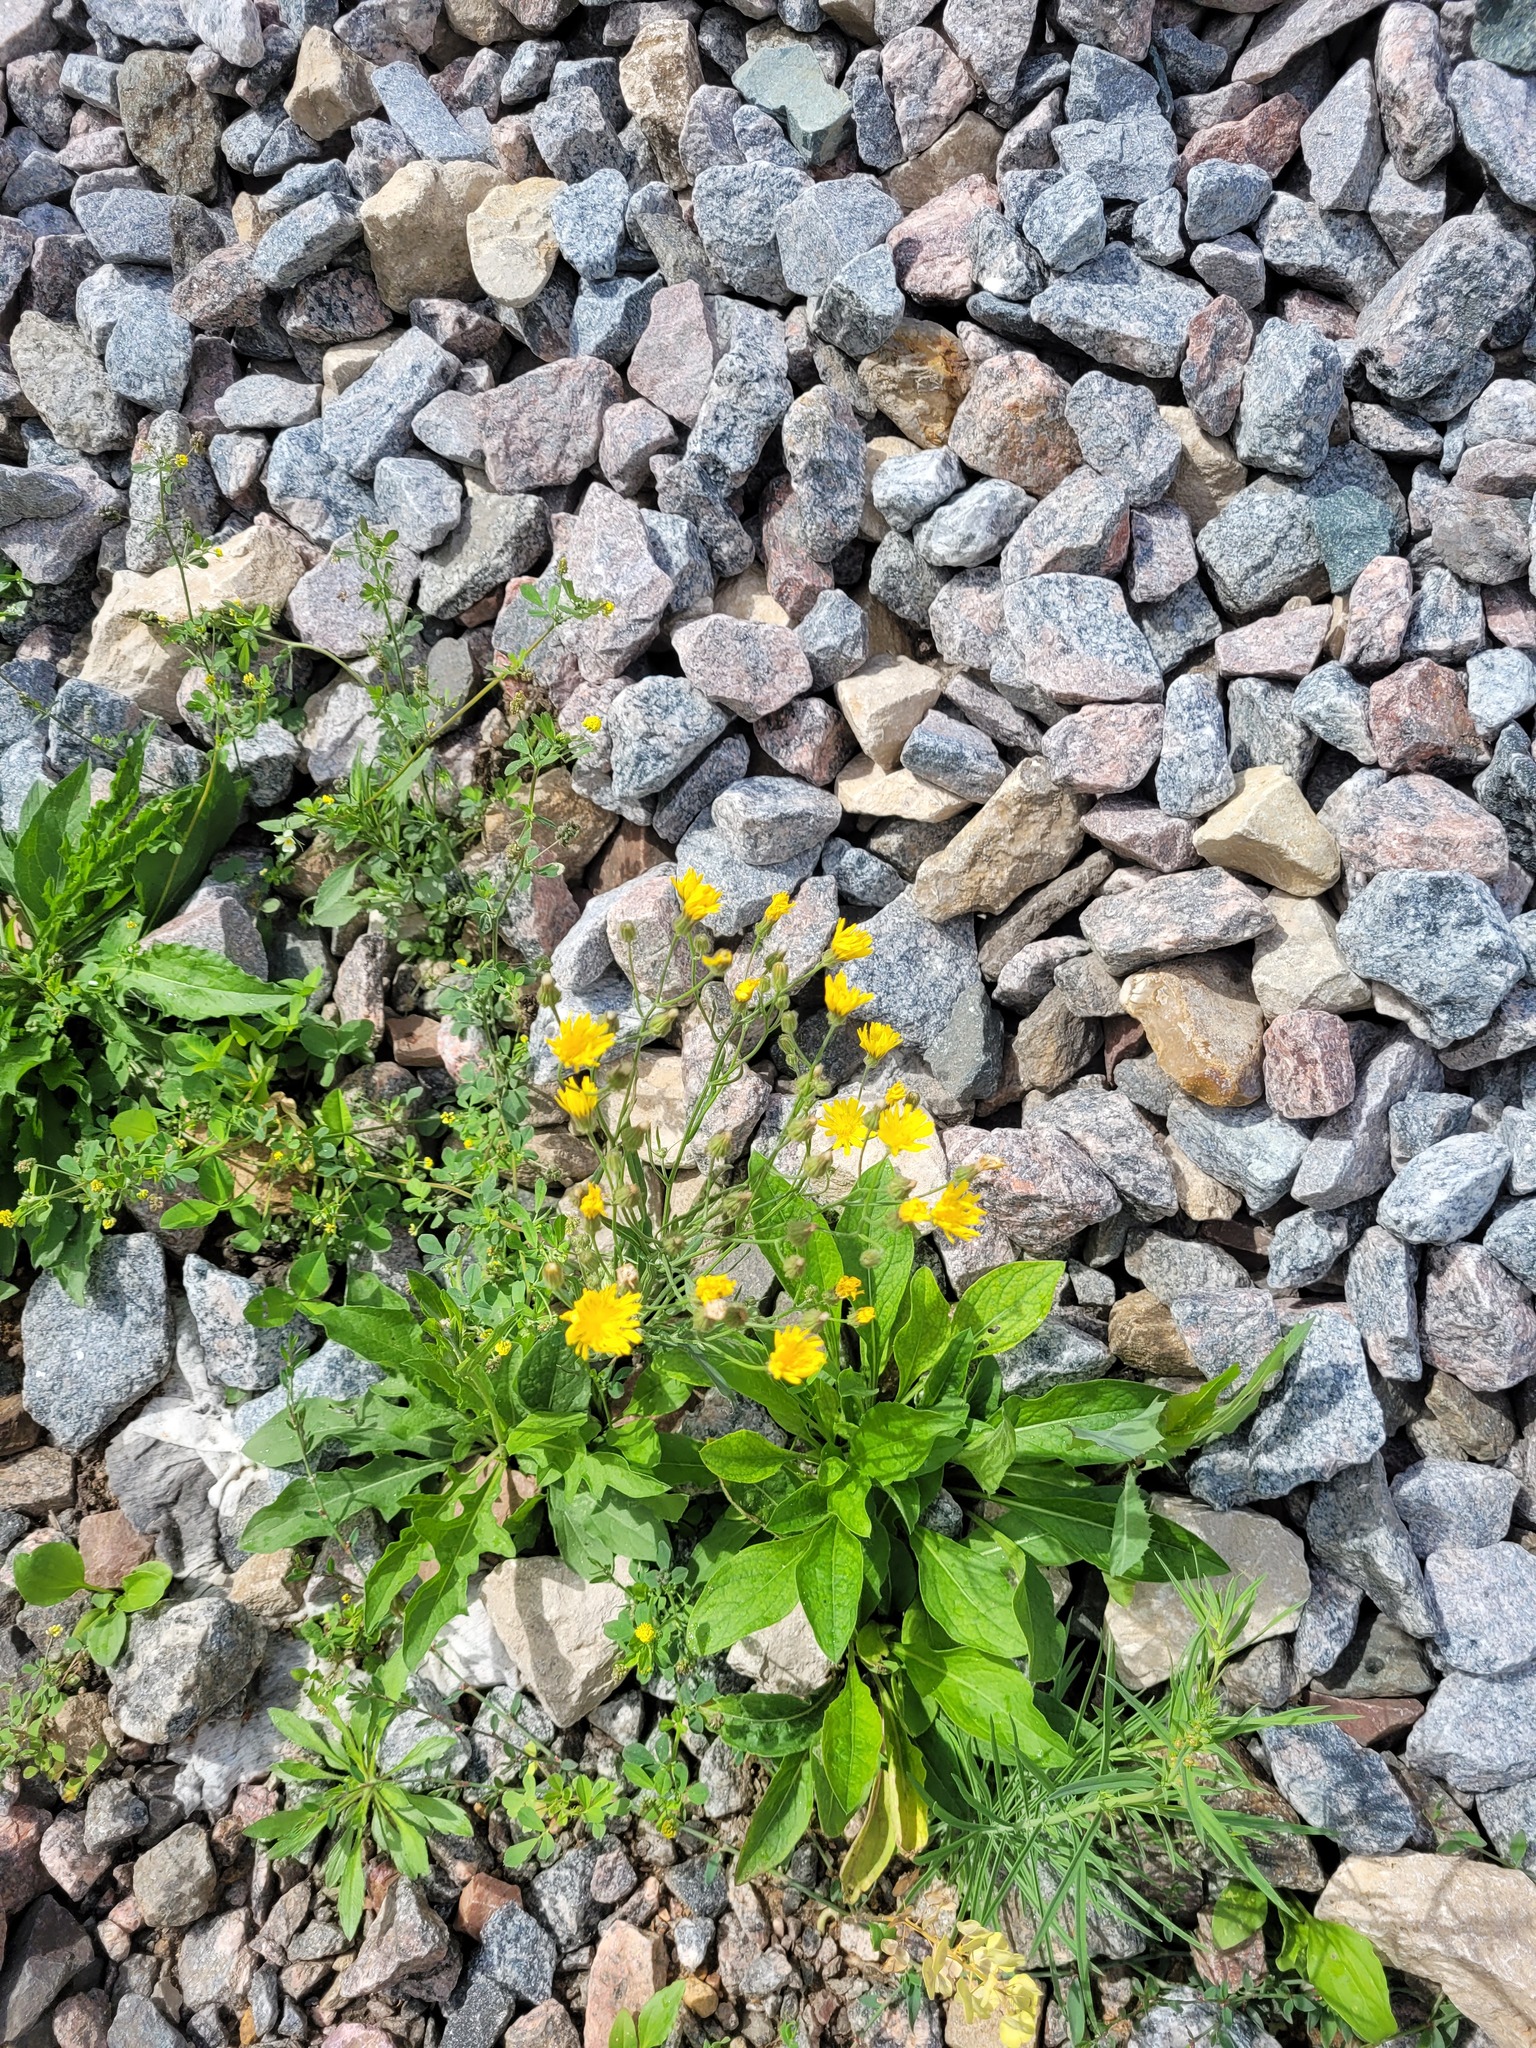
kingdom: Plantae
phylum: Tracheophyta
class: Magnoliopsida
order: Asterales
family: Asteraceae
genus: Crepis
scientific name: Crepis tectorum
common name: Narrow-leaved hawk's-beard
